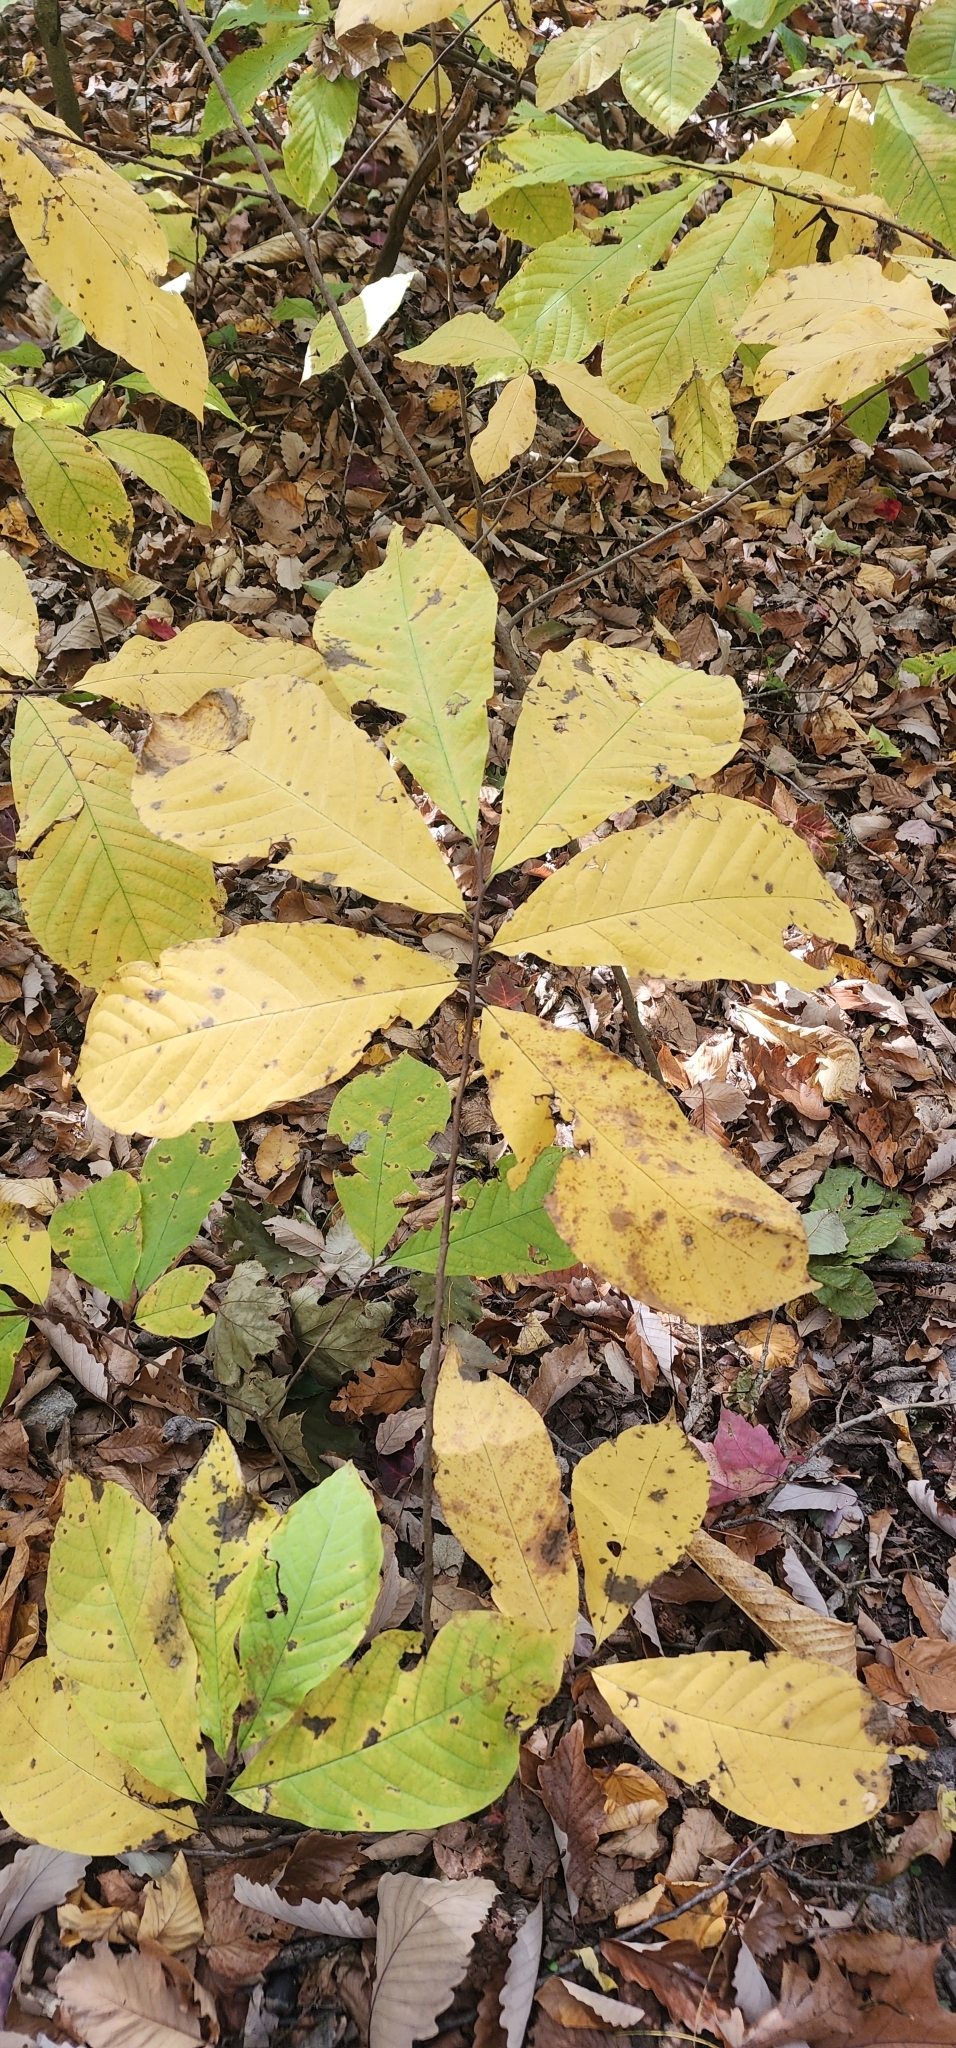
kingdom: Plantae
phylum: Tracheophyta
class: Magnoliopsida
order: Magnoliales
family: Annonaceae
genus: Asimina
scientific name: Asimina triloba
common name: Dog-banana
